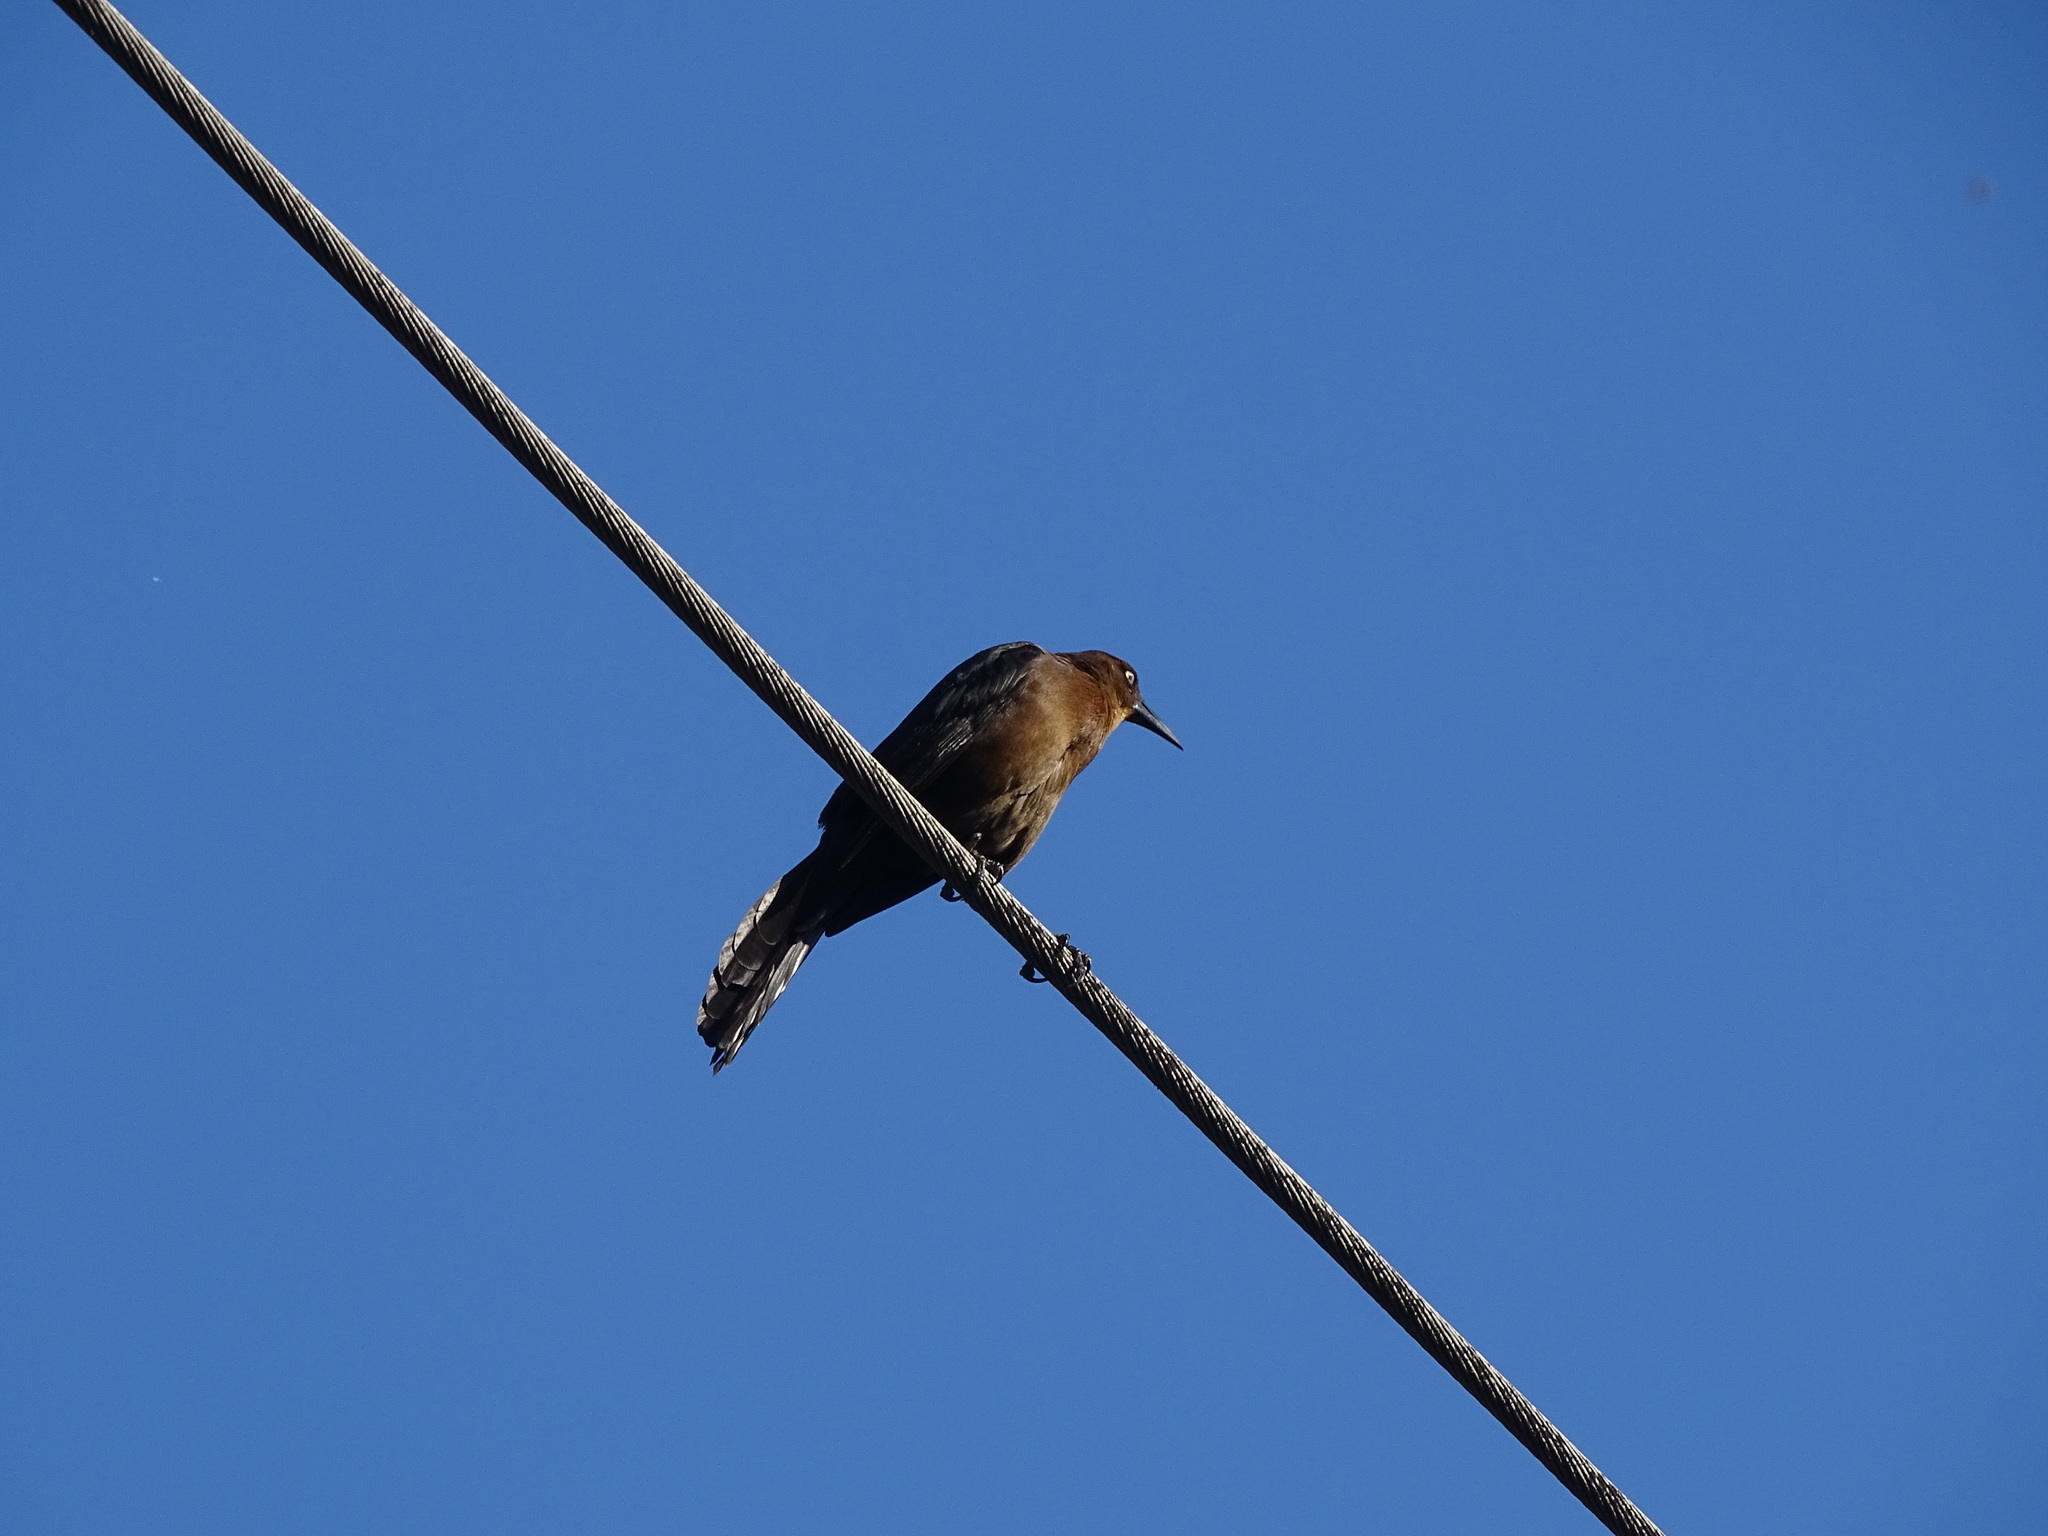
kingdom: Animalia
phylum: Chordata
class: Aves
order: Passeriformes
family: Icteridae
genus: Quiscalus
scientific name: Quiscalus mexicanus
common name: Great-tailed grackle
